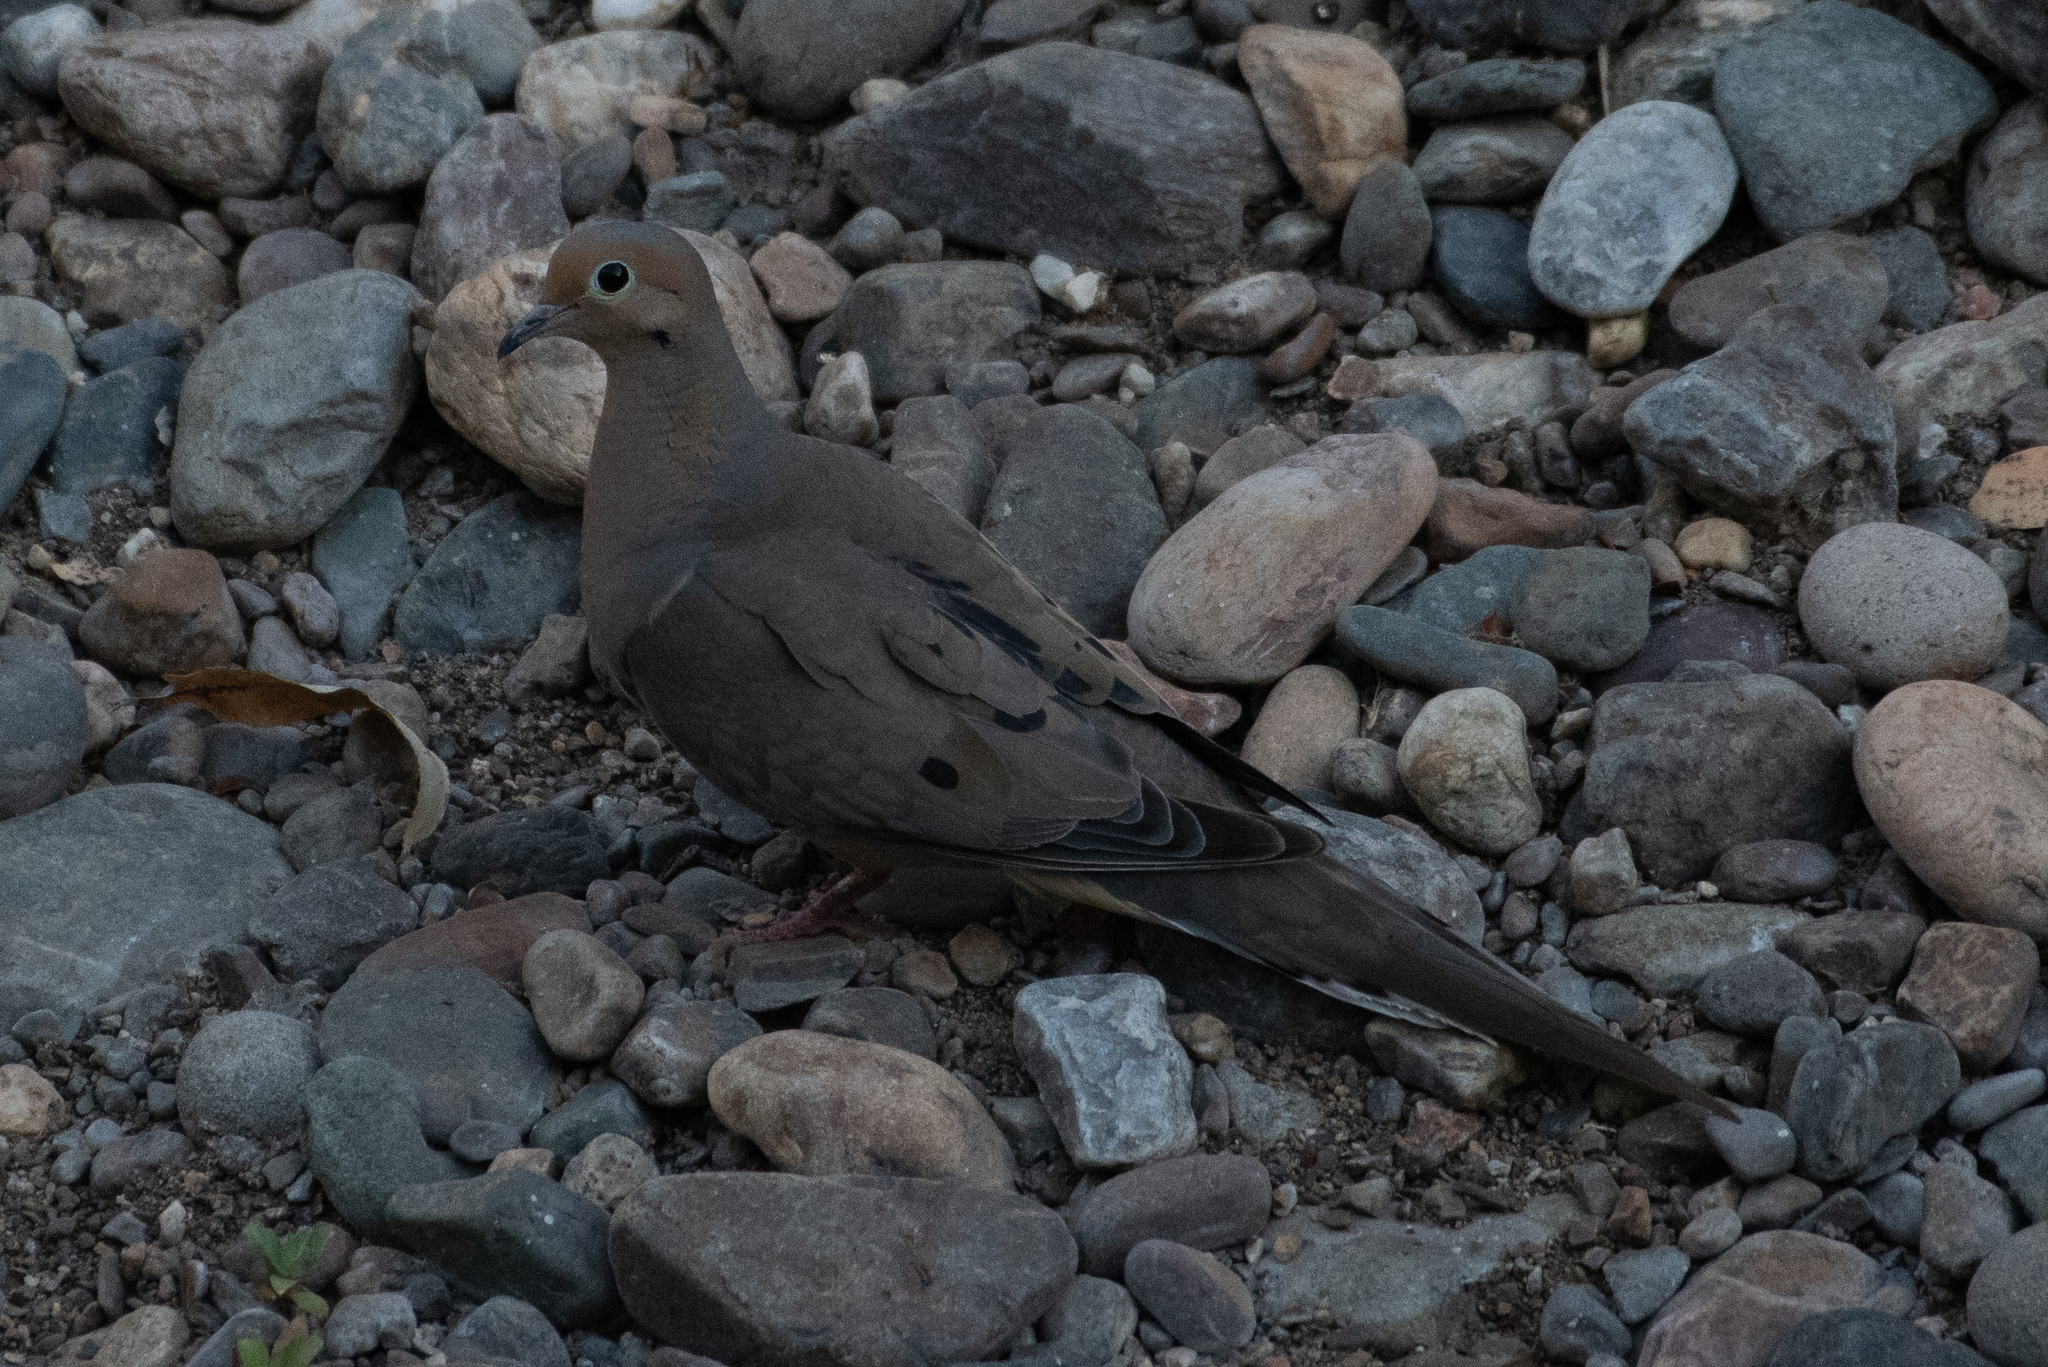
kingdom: Animalia
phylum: Chordata
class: Aves
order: Columbiformes
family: Columbidae
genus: Zenaida
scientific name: Zenaida macroura
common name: Mourning dove
